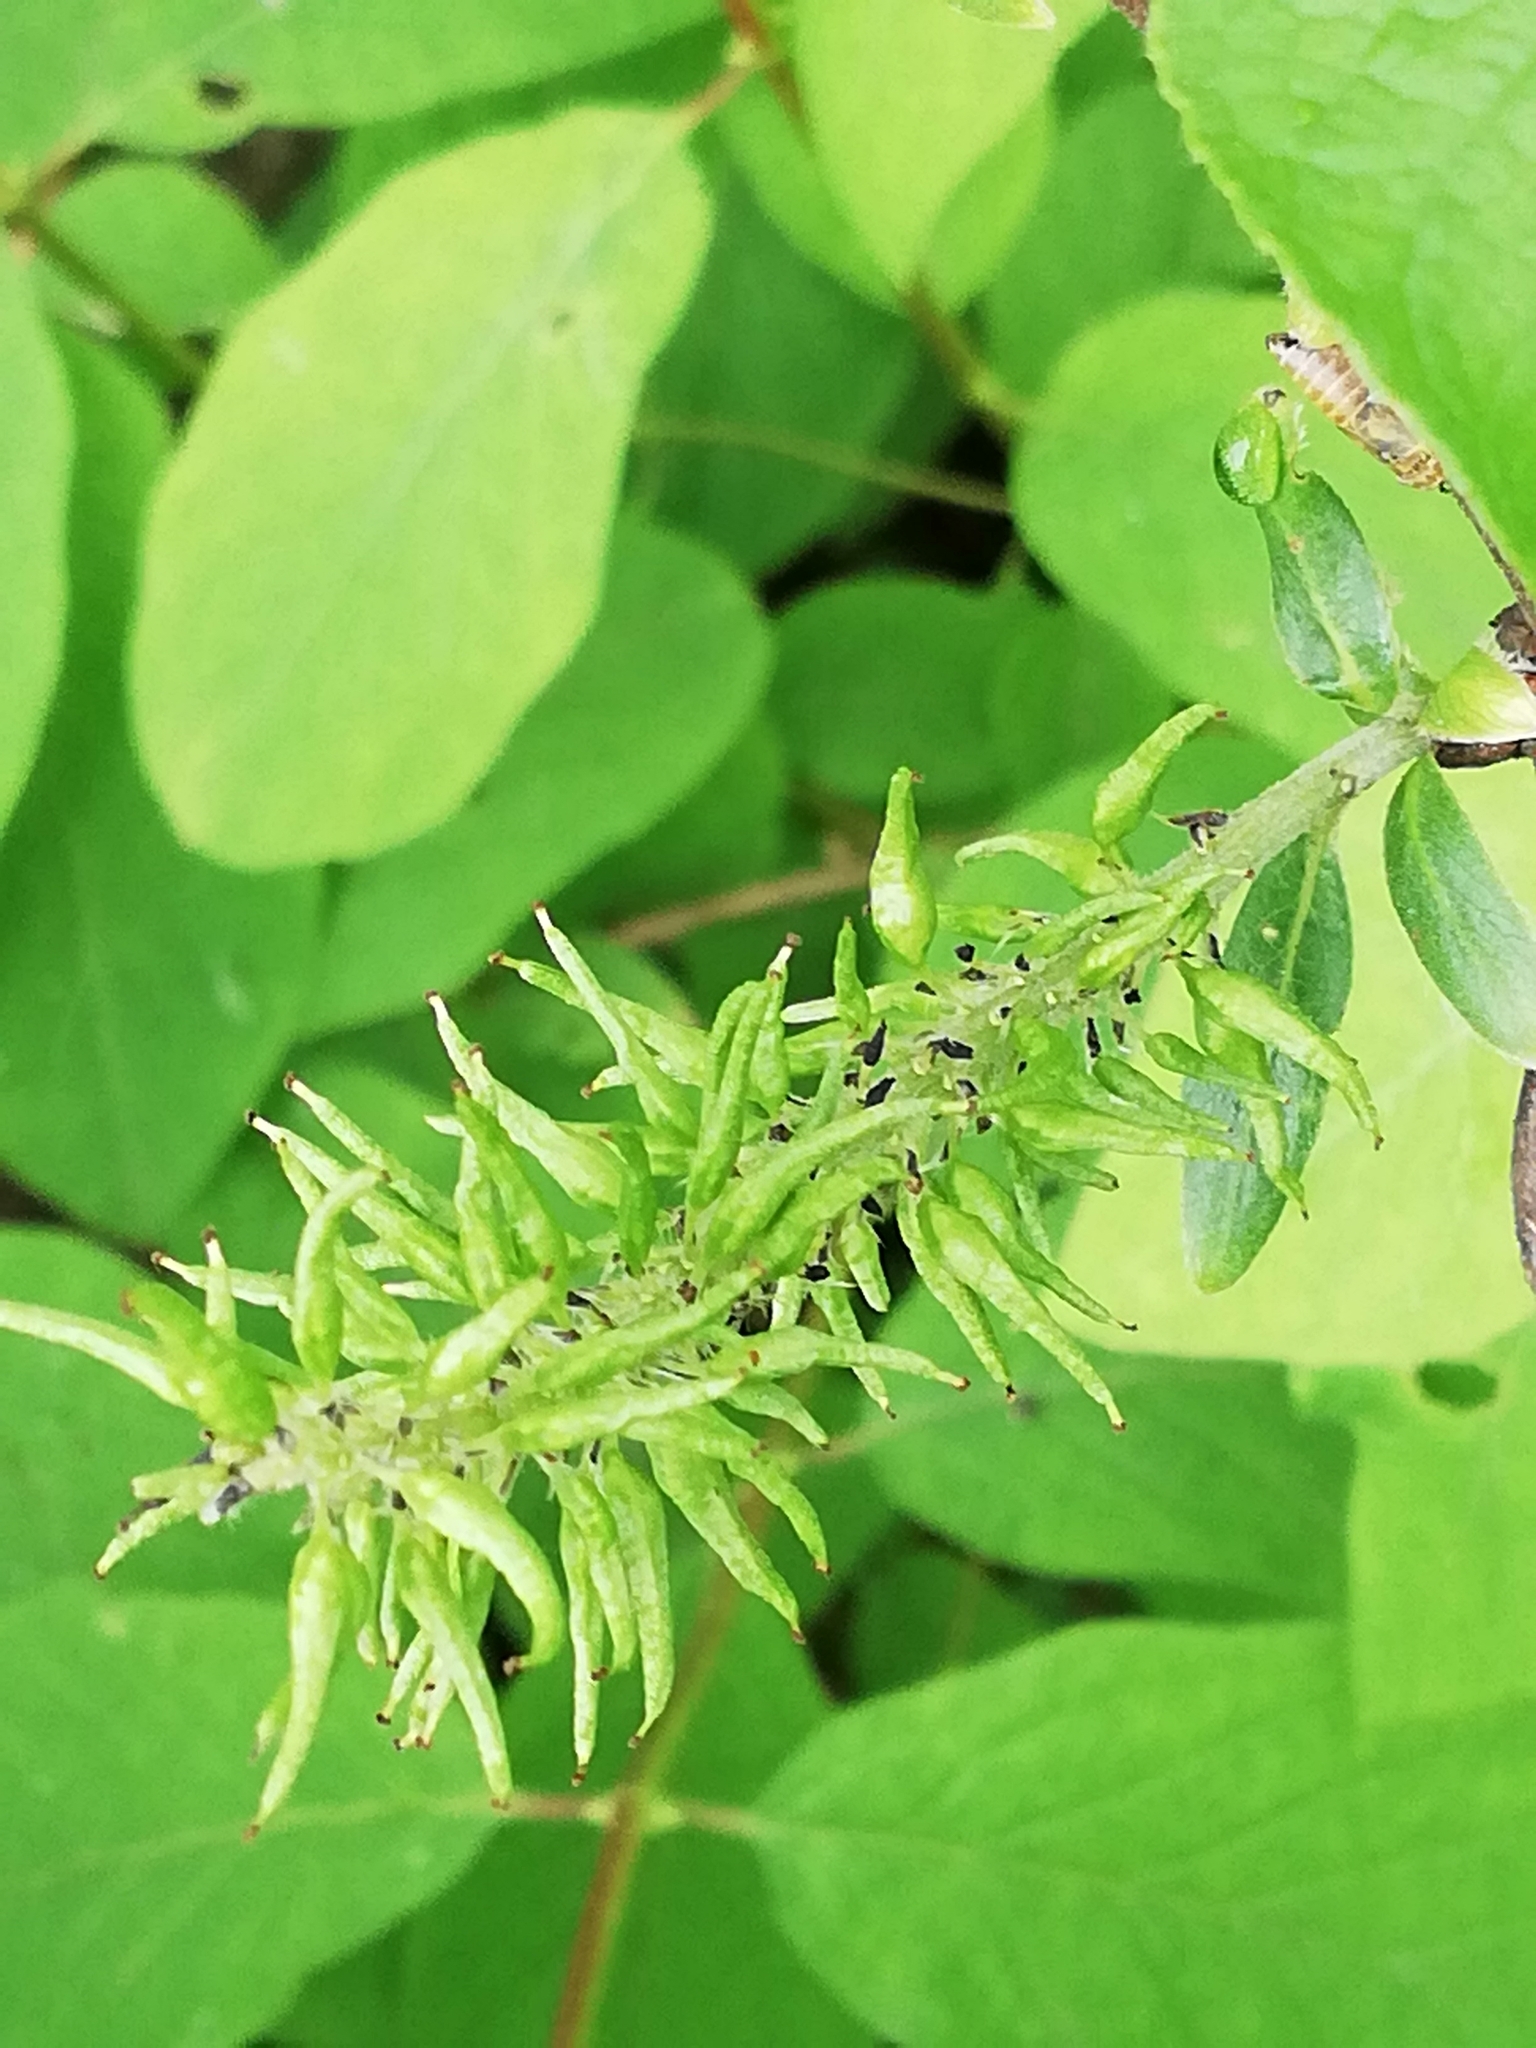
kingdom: Plantae
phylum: Tracheophyta
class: Magnoliopsida
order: Malpighiales
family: Salicaceae
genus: Salix
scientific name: Salix cinerea
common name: Common sallow
